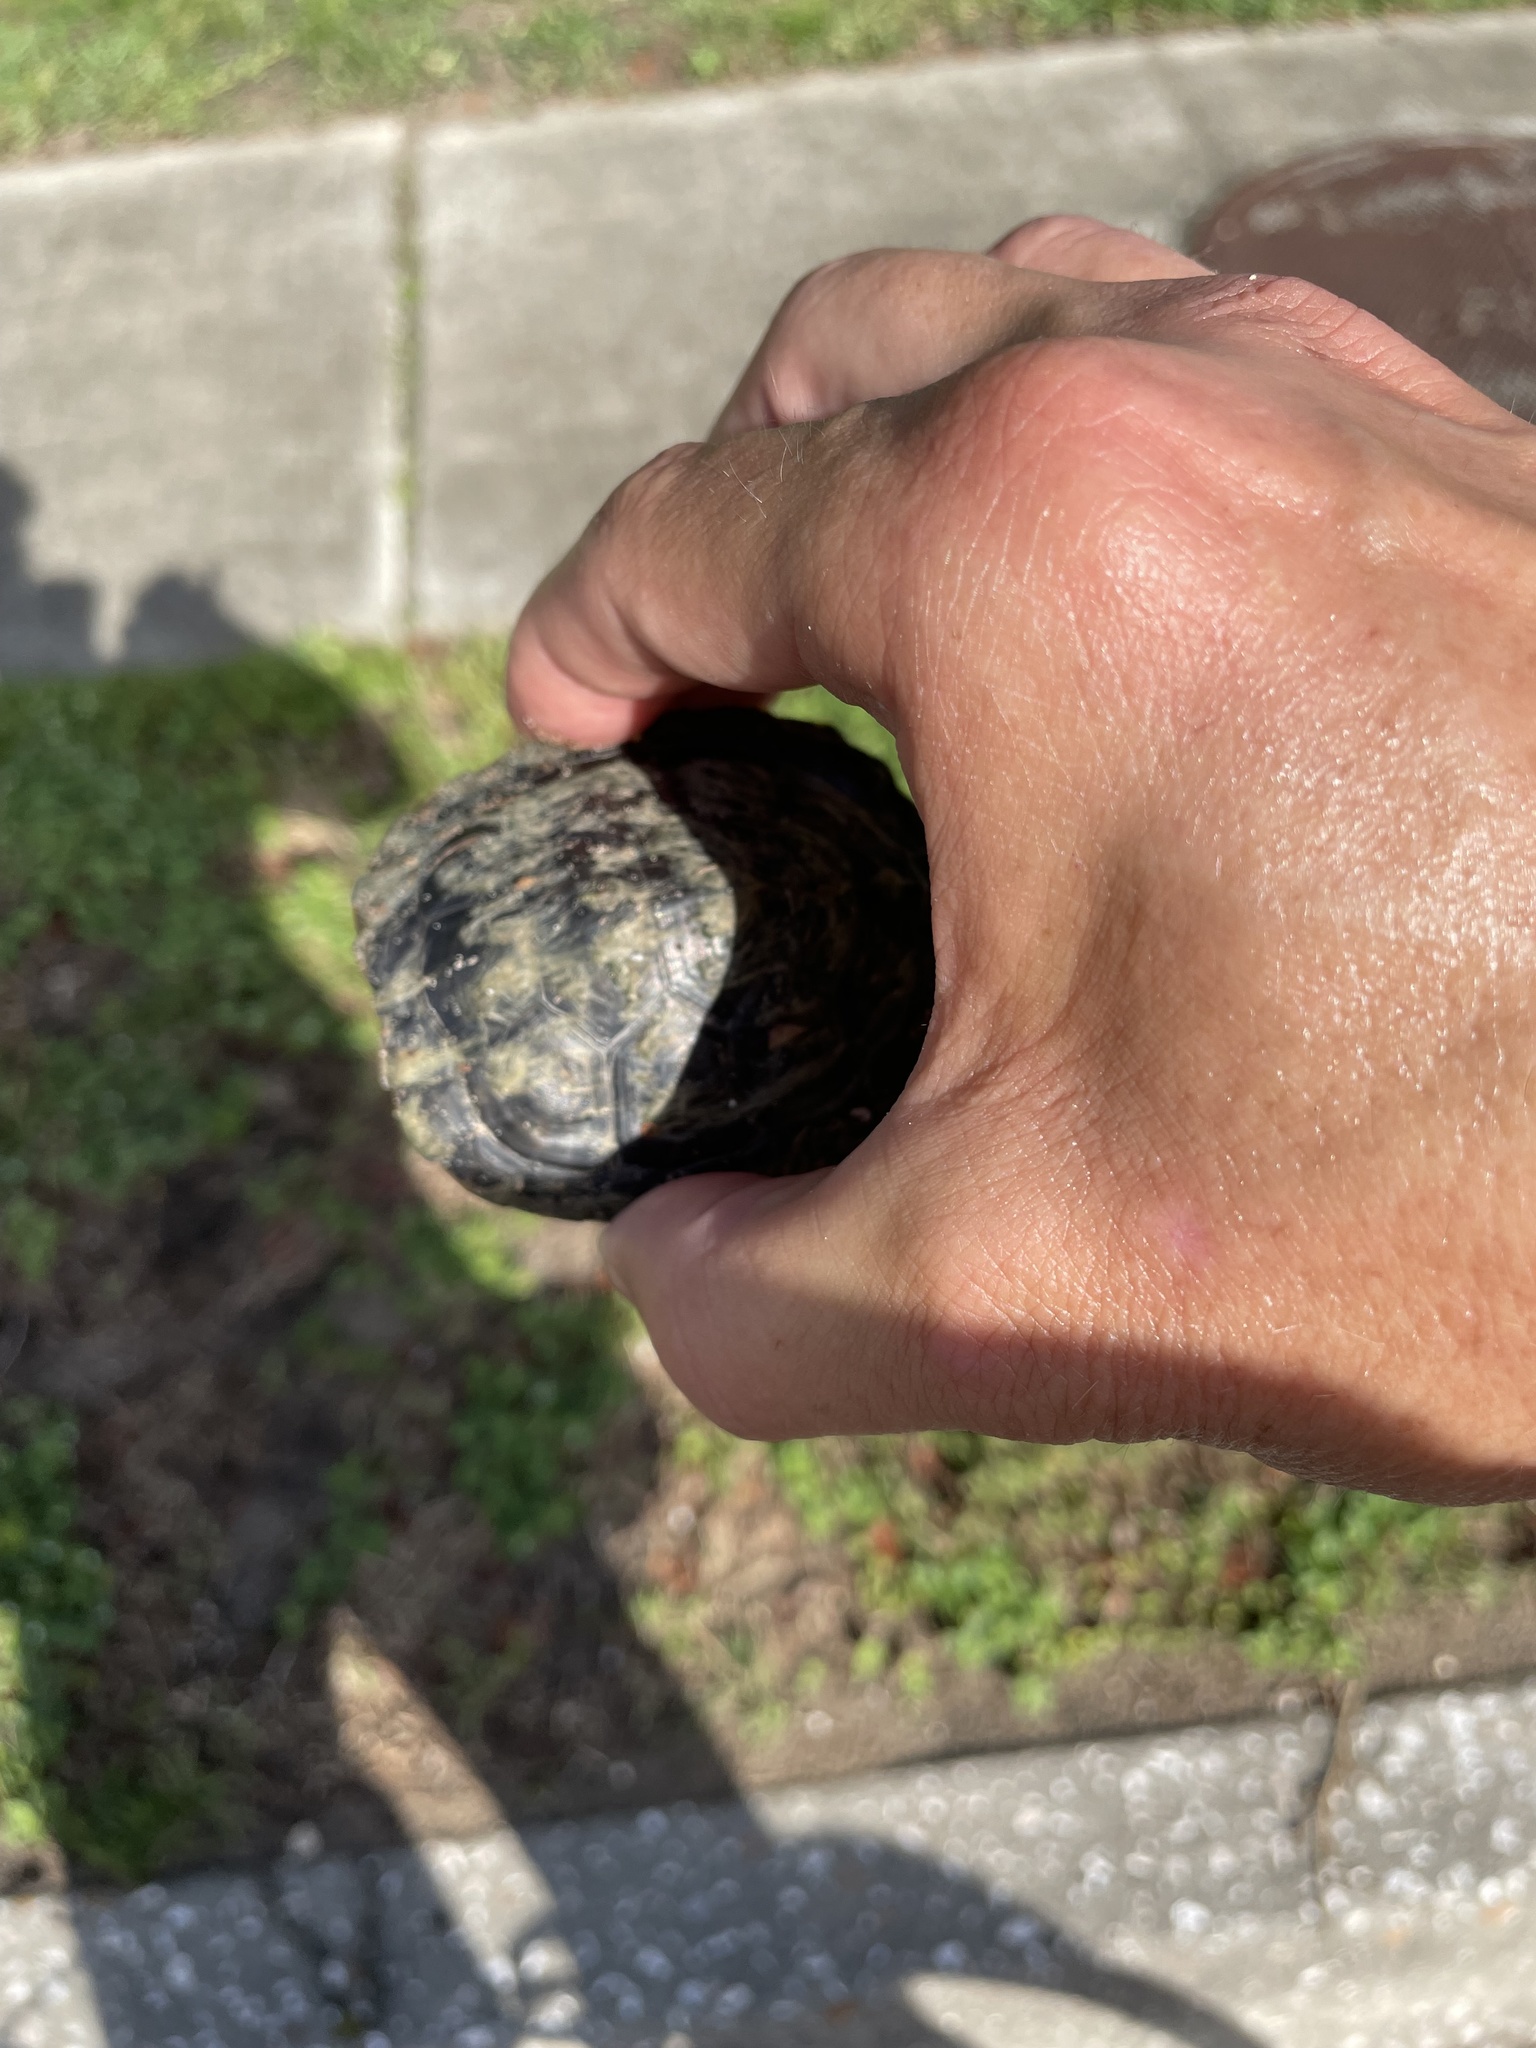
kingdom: Animalia
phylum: Chordata
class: Testudines
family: Emydidae
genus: Trachemys
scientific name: Trachemys scripta
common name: Slider
